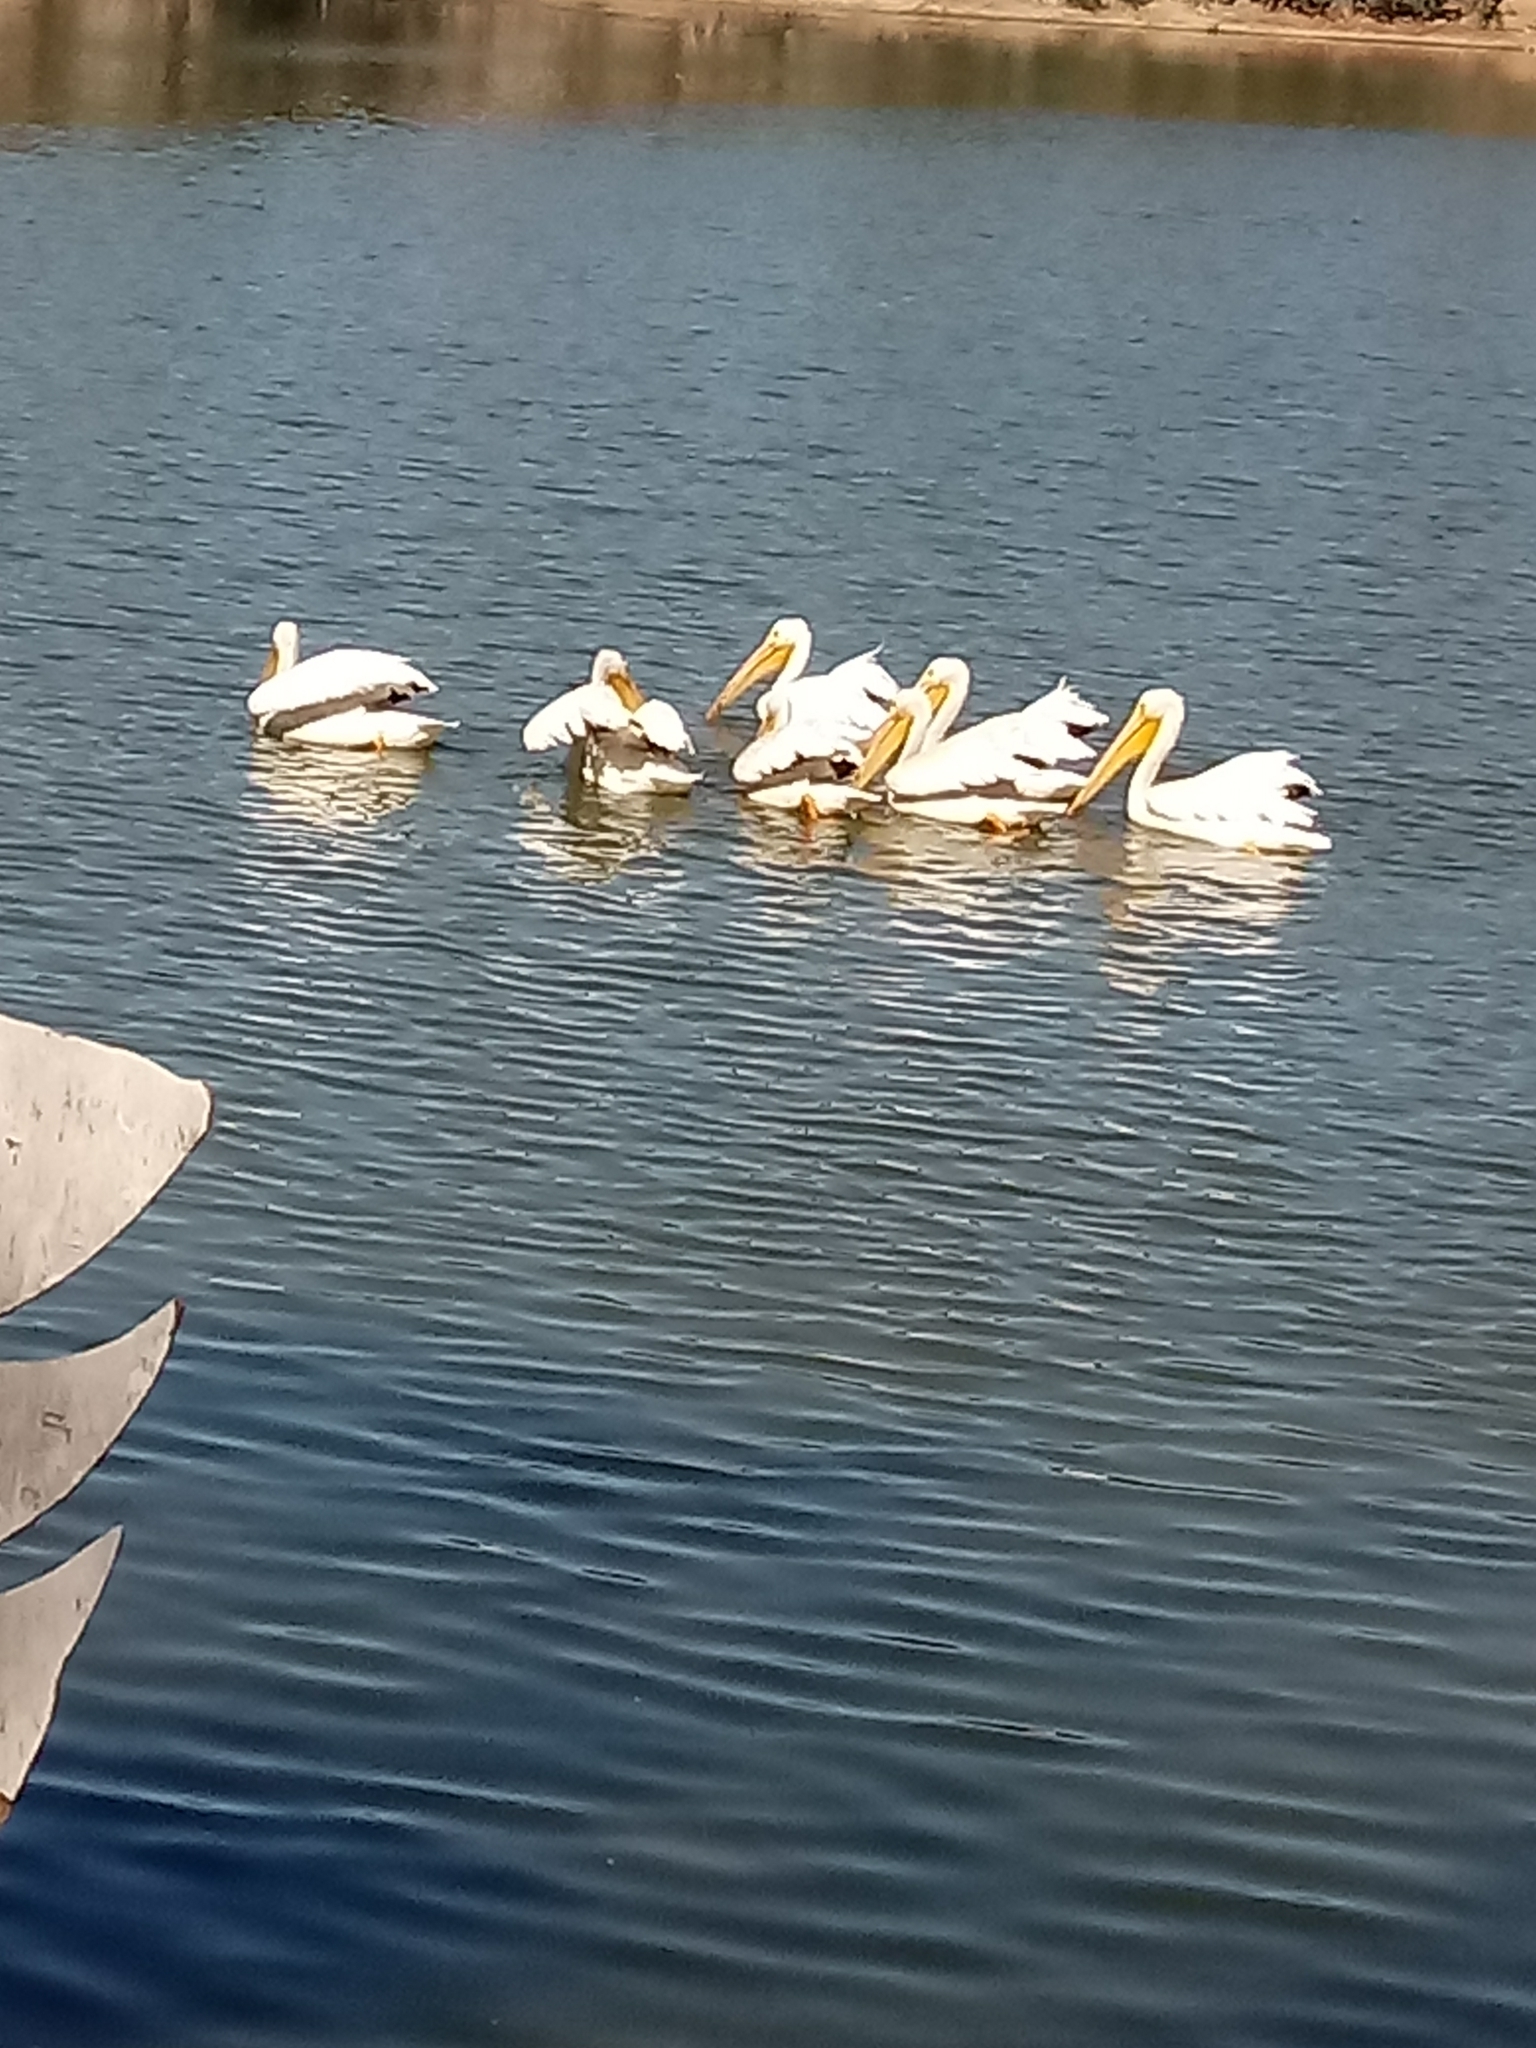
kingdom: Animalia
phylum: Chordata
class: Aves
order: Pelecaniformes
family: Pelecanidae
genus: Pelecanus
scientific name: Pelecanus erythrorhynchos
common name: American white pelican
